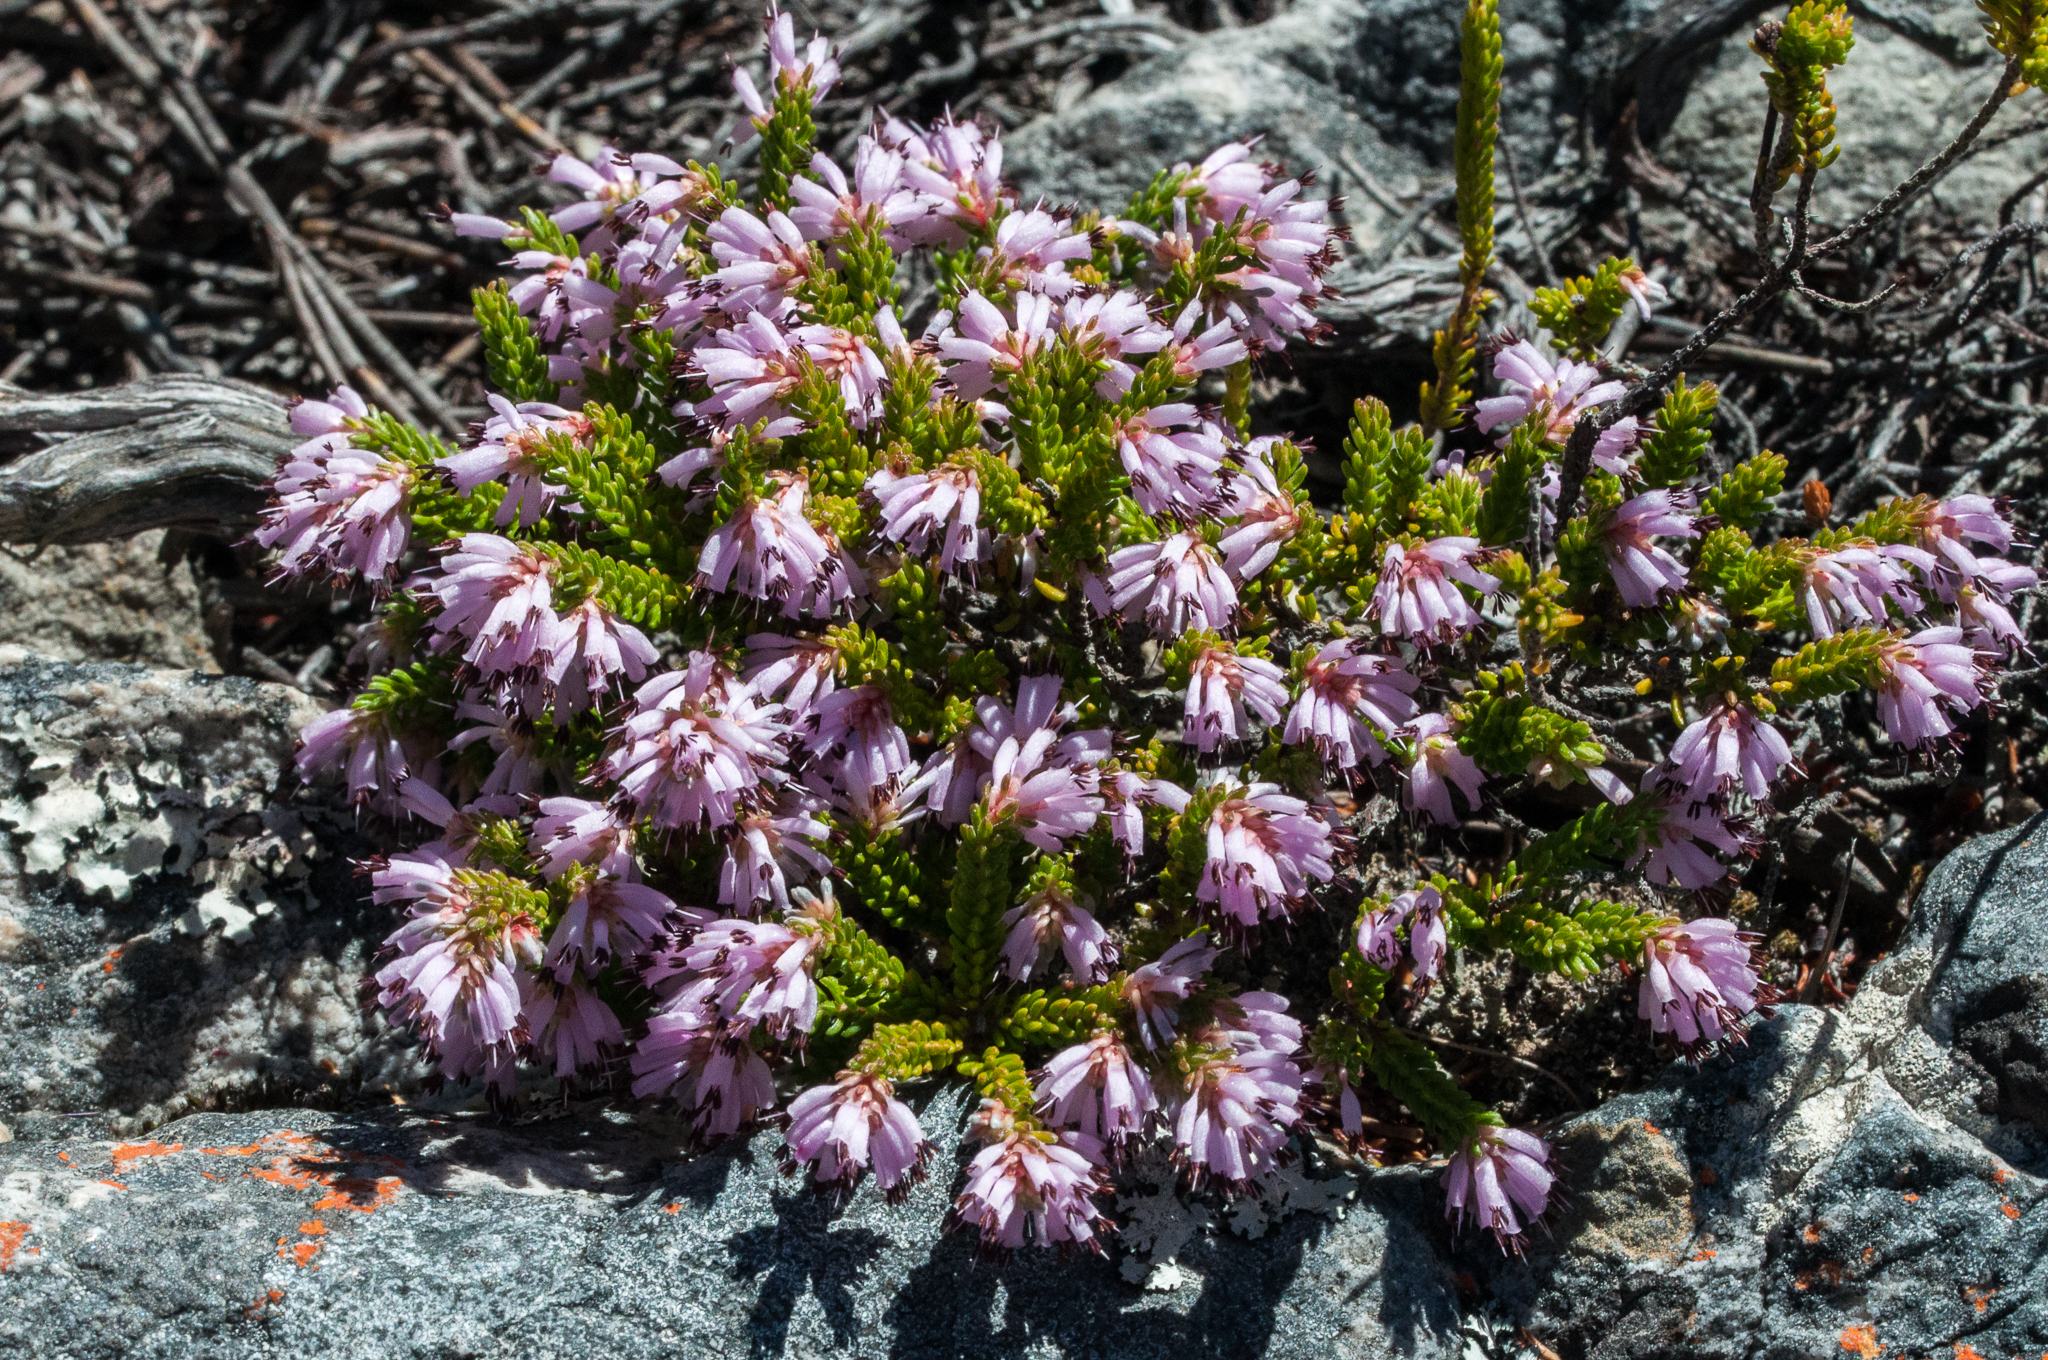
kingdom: Plantae
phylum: Tracheophyta
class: Magnoliopsida
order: Ericales
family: Ericaceae
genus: Erica
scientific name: Erica labialis
